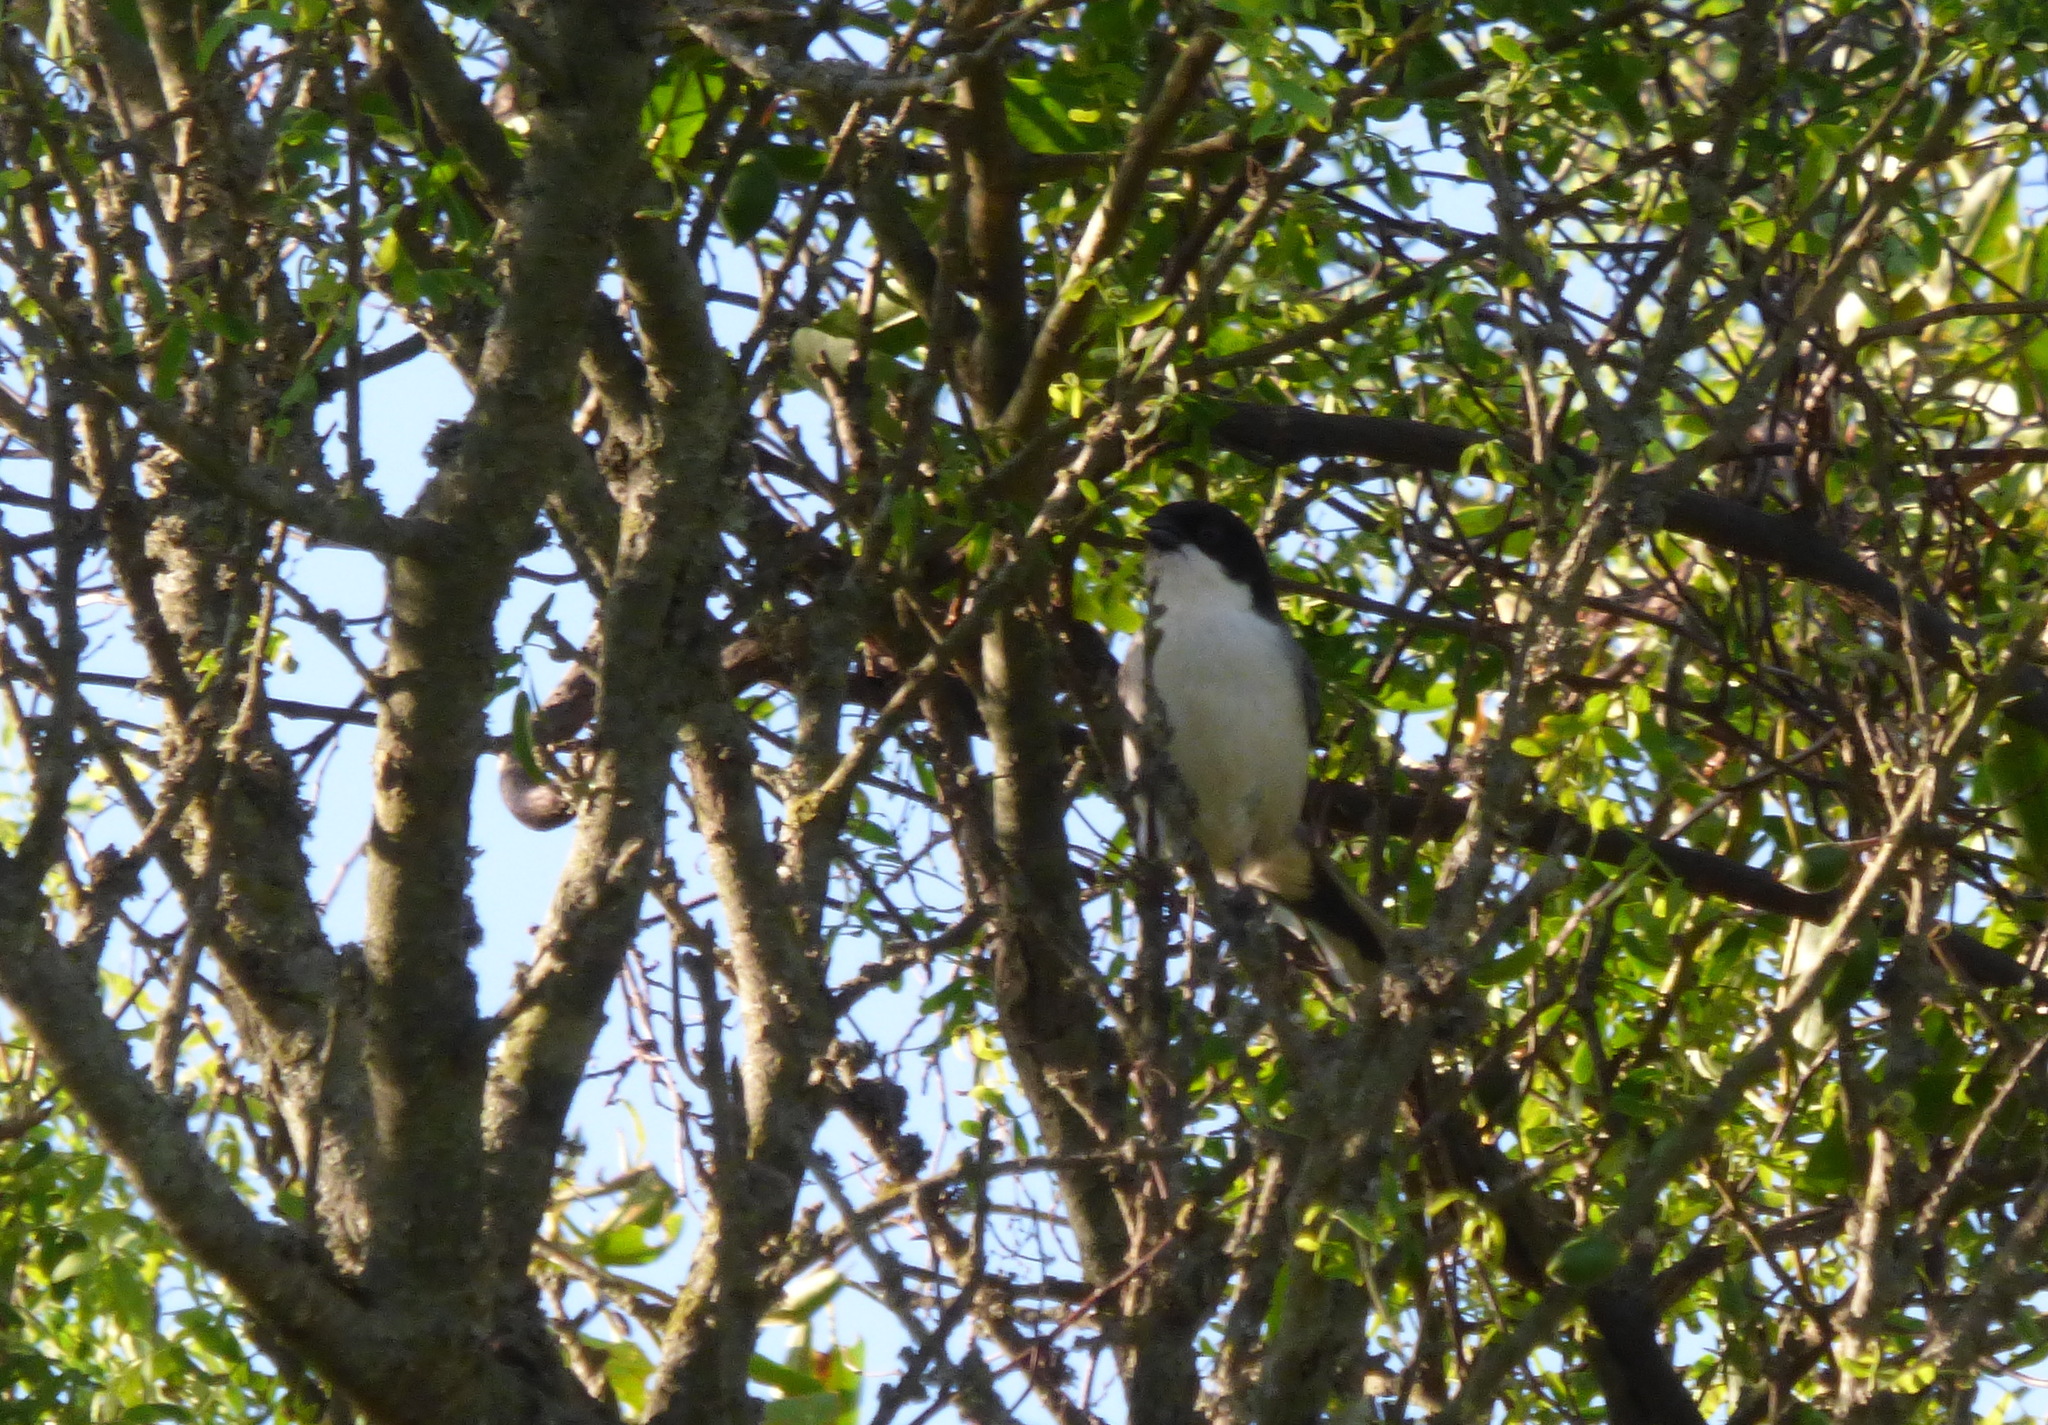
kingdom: Animalia
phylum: Chordata
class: Aves
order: Passeriformes
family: Thraupidae
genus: Microspingus
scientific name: Microspingus melanoleucus
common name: Black-capped warbling-finch
